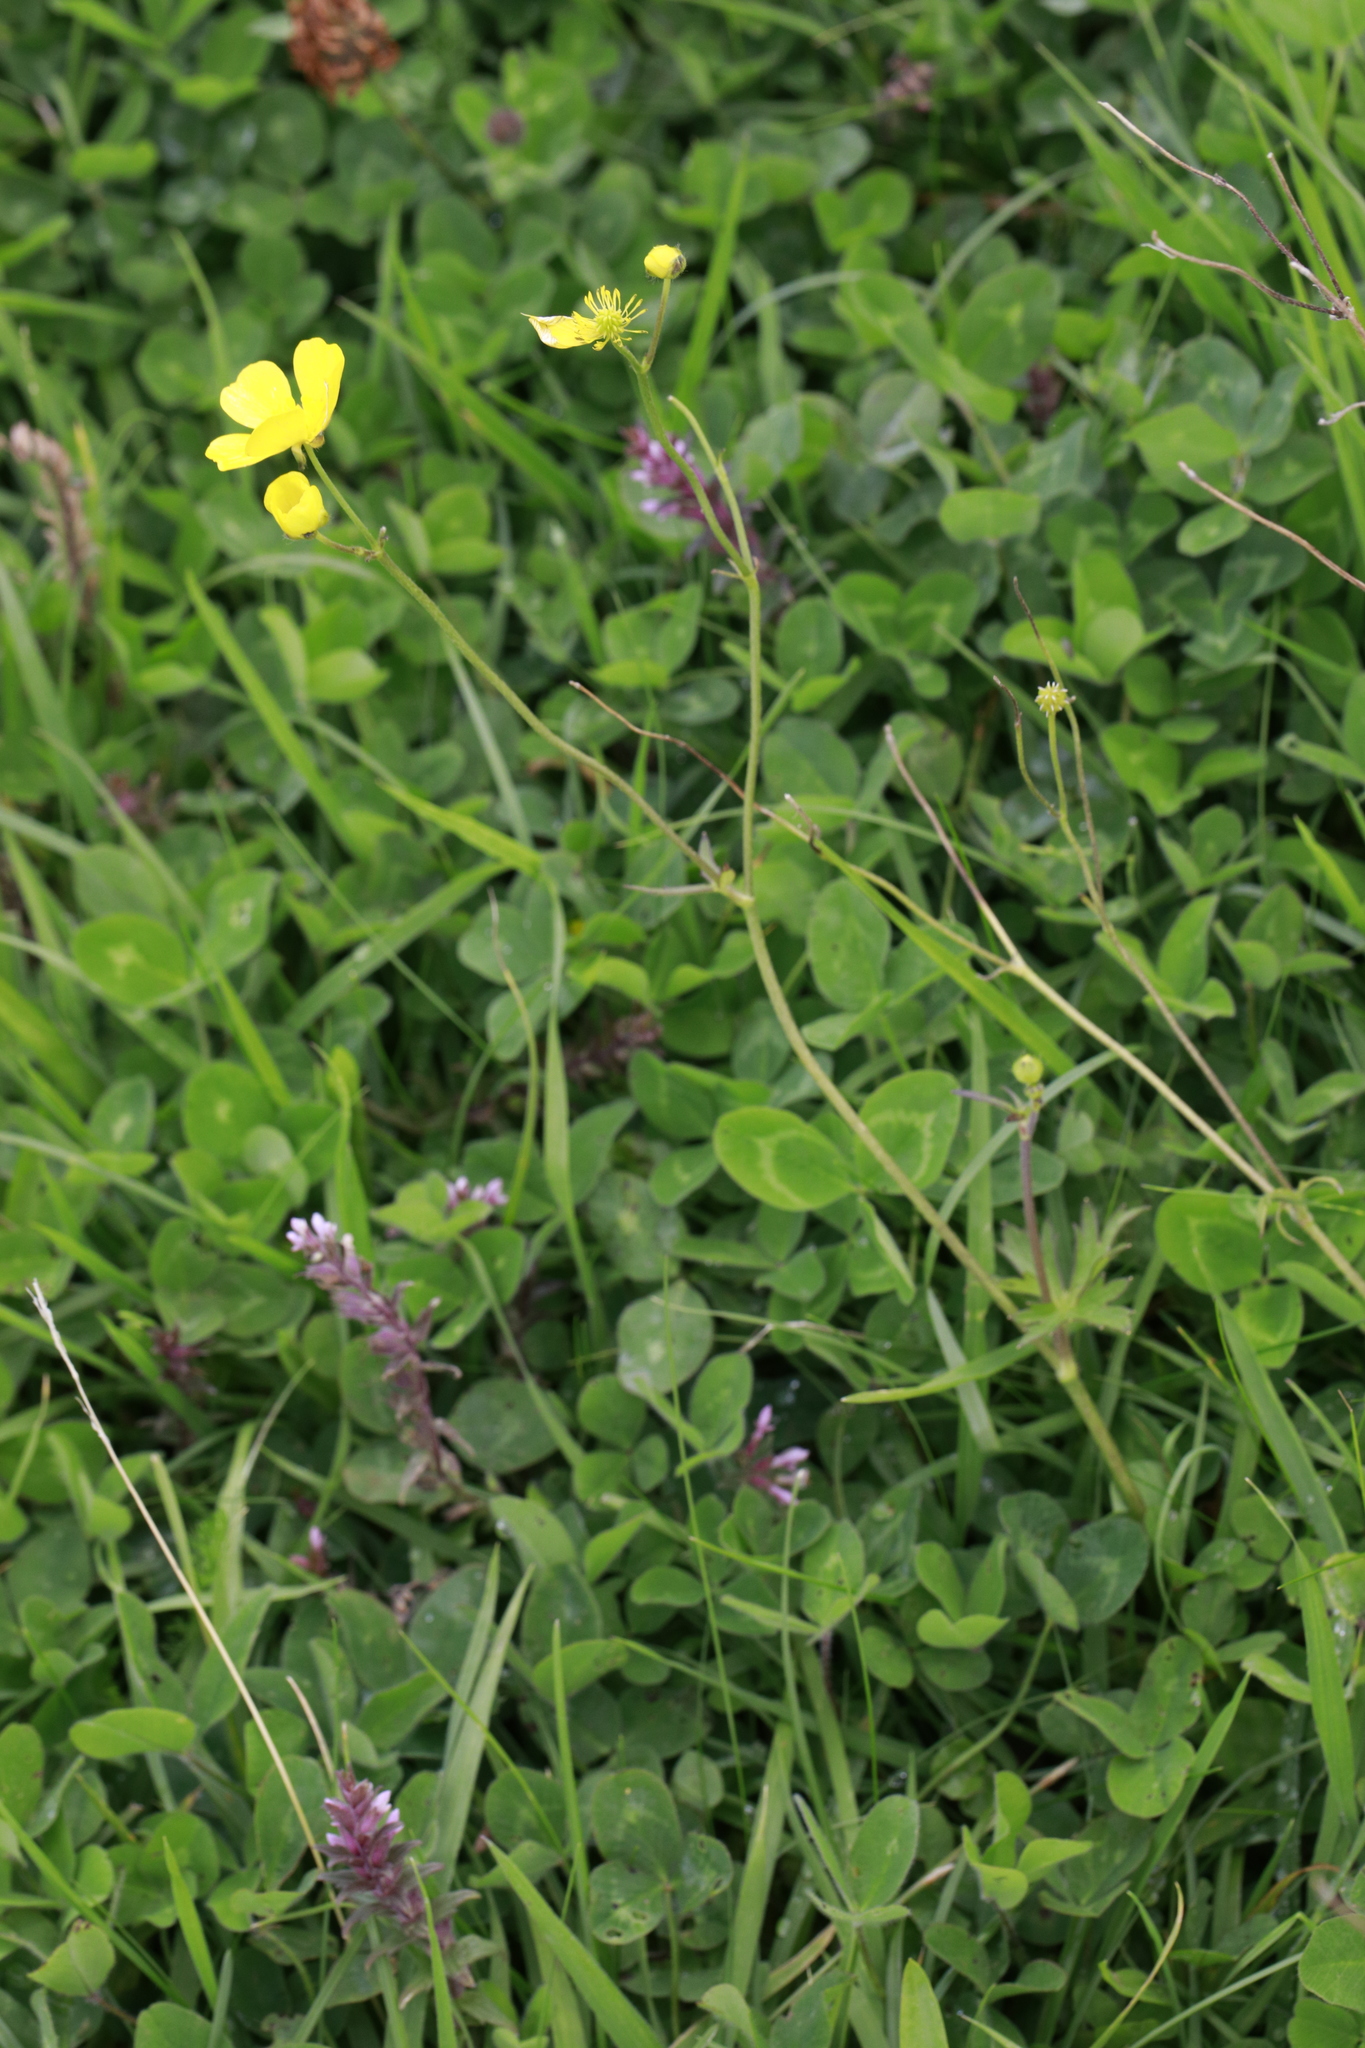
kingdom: Plantae
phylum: Tracheophyta
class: Magnoliopsida
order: Ranunculales
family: Ranunculaceae
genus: Ranunculus
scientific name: Ranunculus acris
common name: Meadow buttercup
